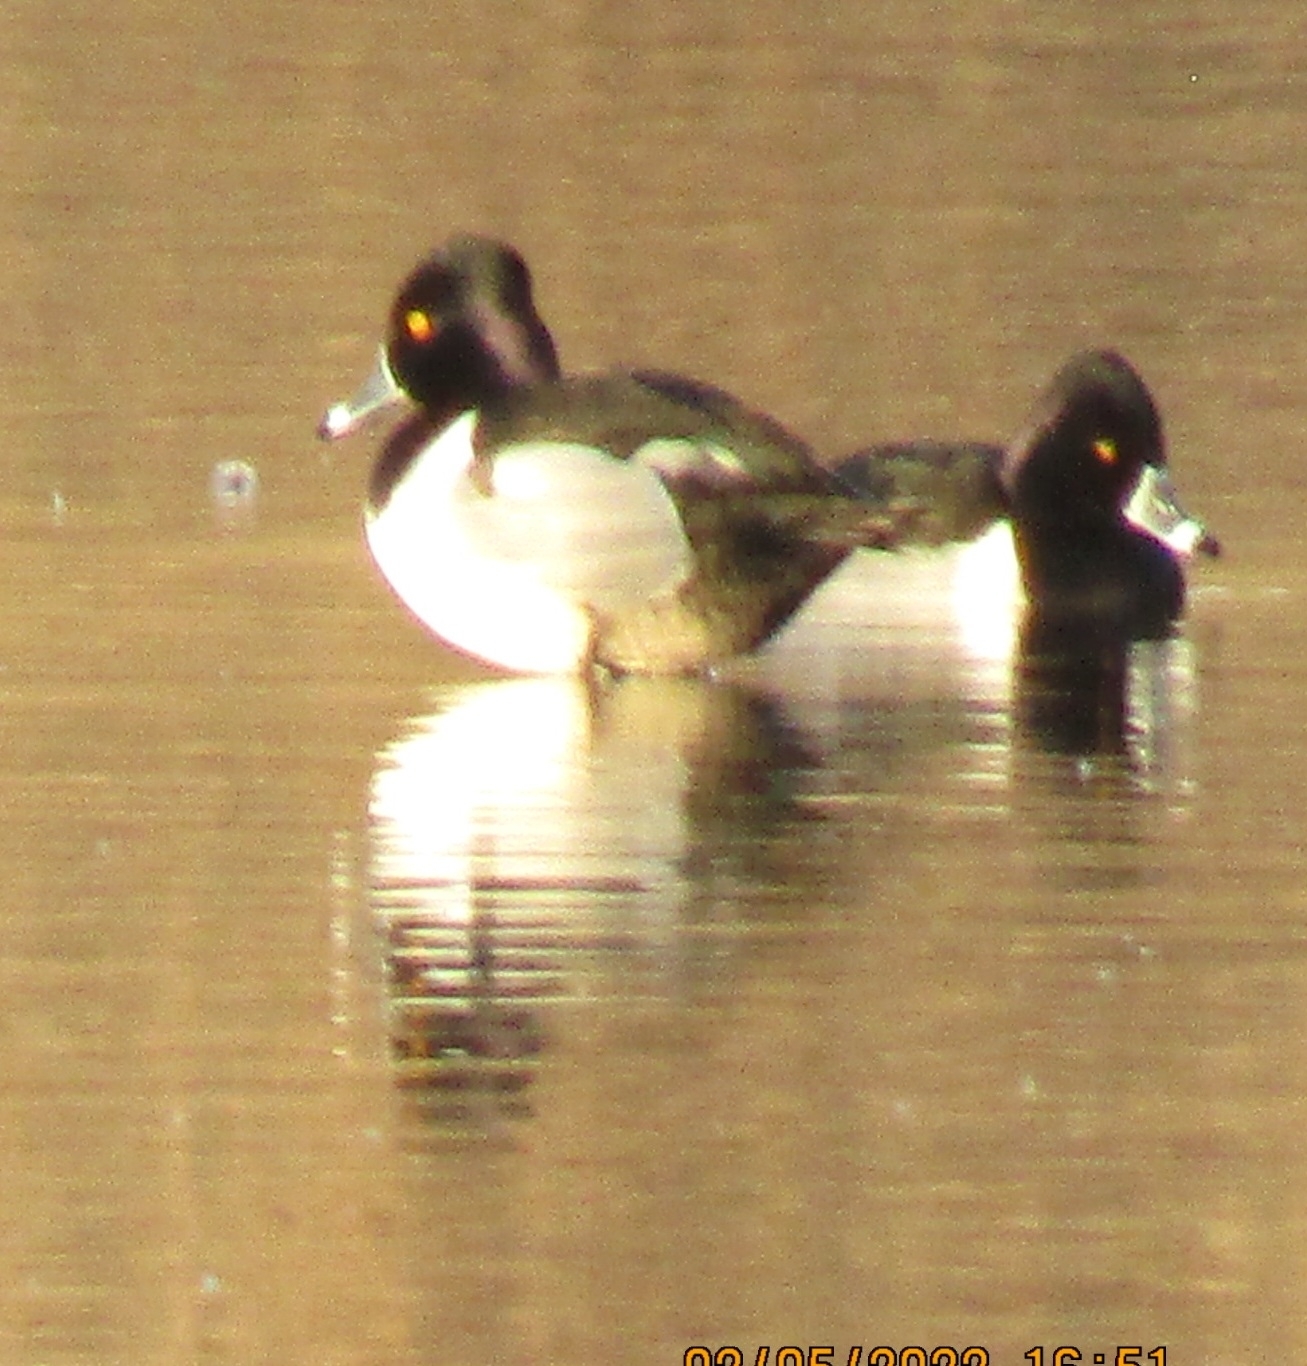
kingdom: Animalia
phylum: Chordata
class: Aves
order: Anseriformes
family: Anatidae
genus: Aythya
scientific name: Aythya collaris
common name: Ring-necked duck
